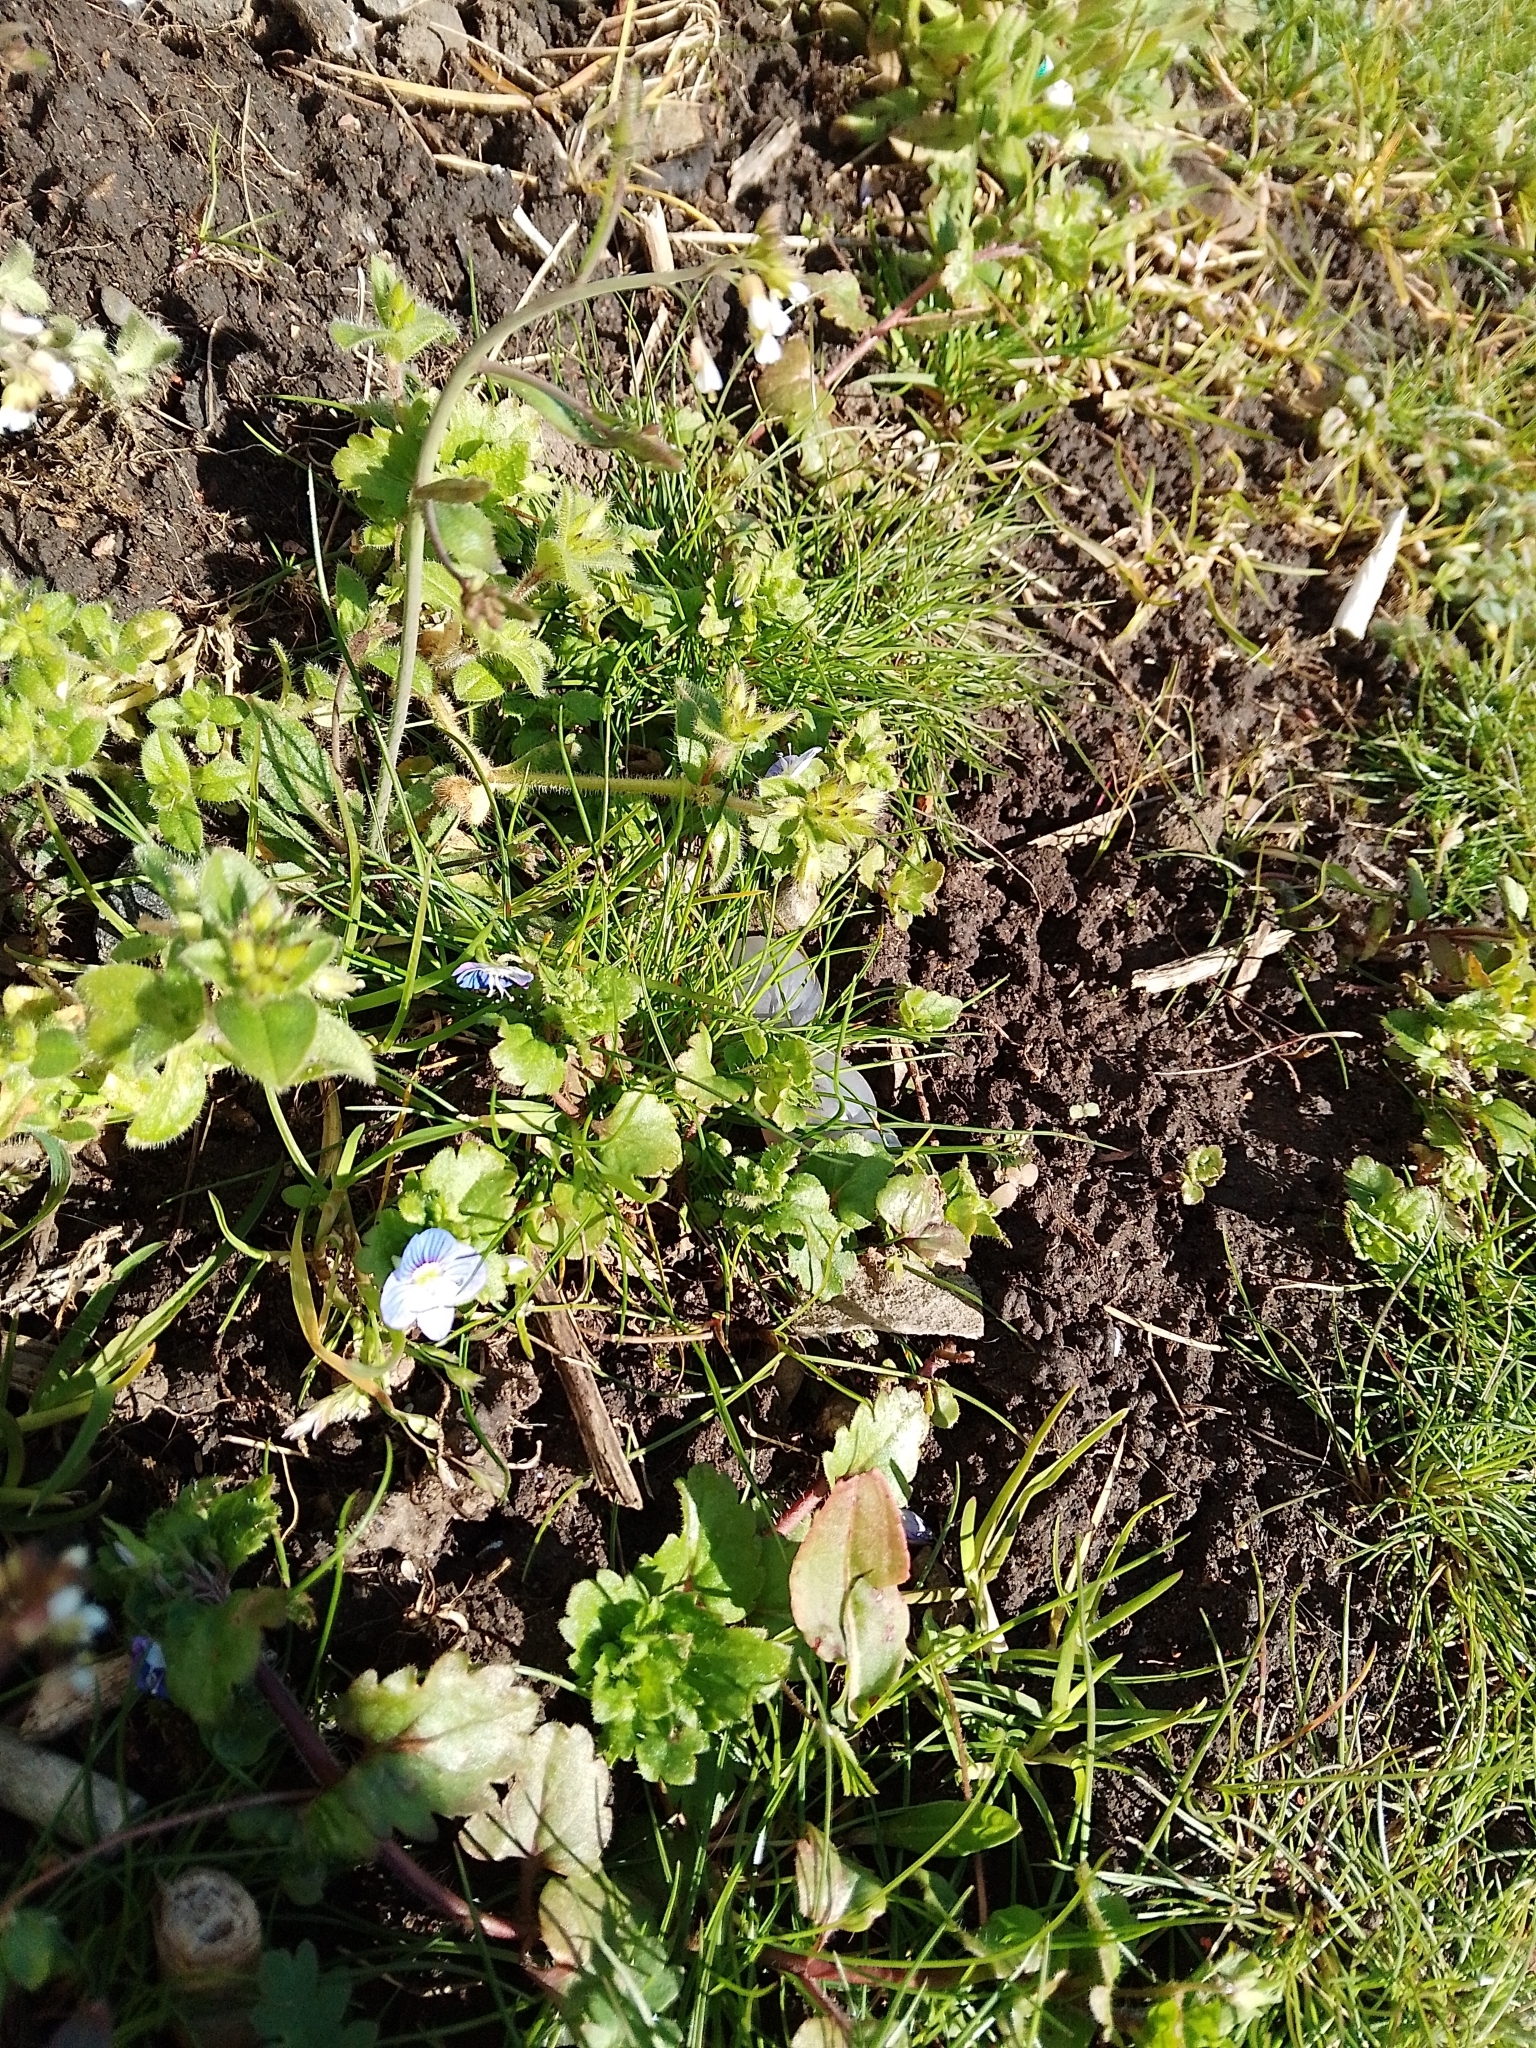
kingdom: Plantae
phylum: Tracheophyta
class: Magnoliopsida
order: Lamiales
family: Plantaginaceae
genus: Veronica
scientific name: Veronica persica
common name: Common field-speedwell
